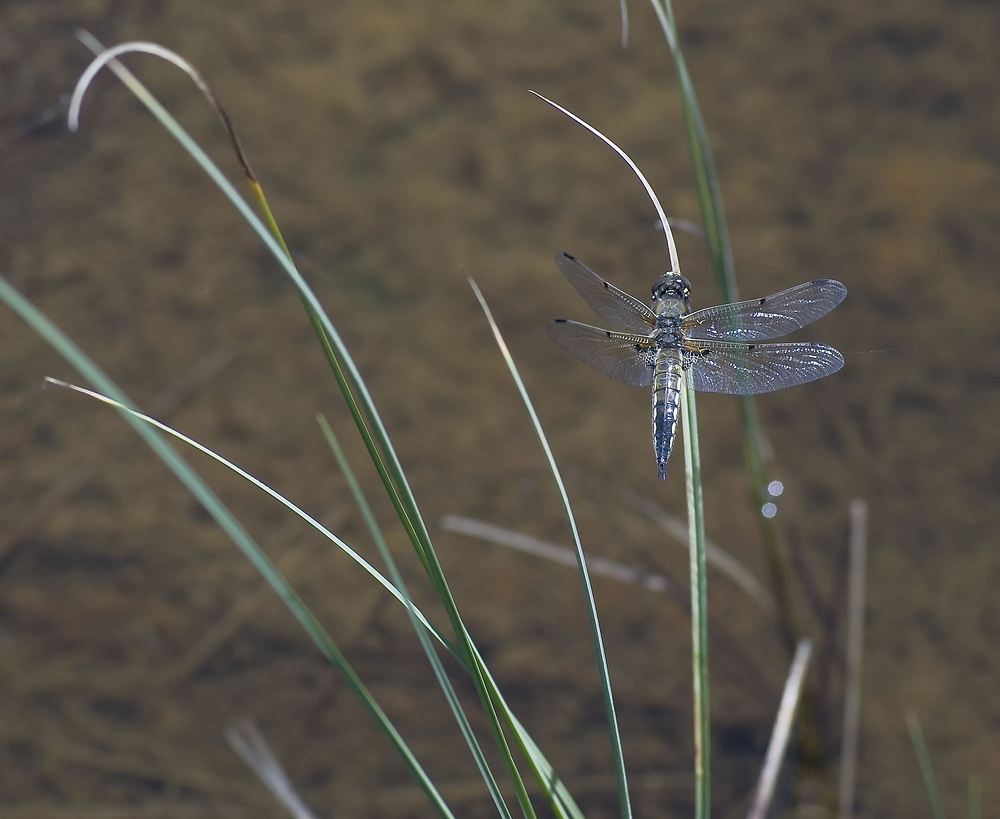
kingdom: Animalia
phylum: Arthropoda
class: Insecta
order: Odonata
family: Libellulidae
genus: Libellula
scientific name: Libellula quadrimaculata
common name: Four-spotted chaser
